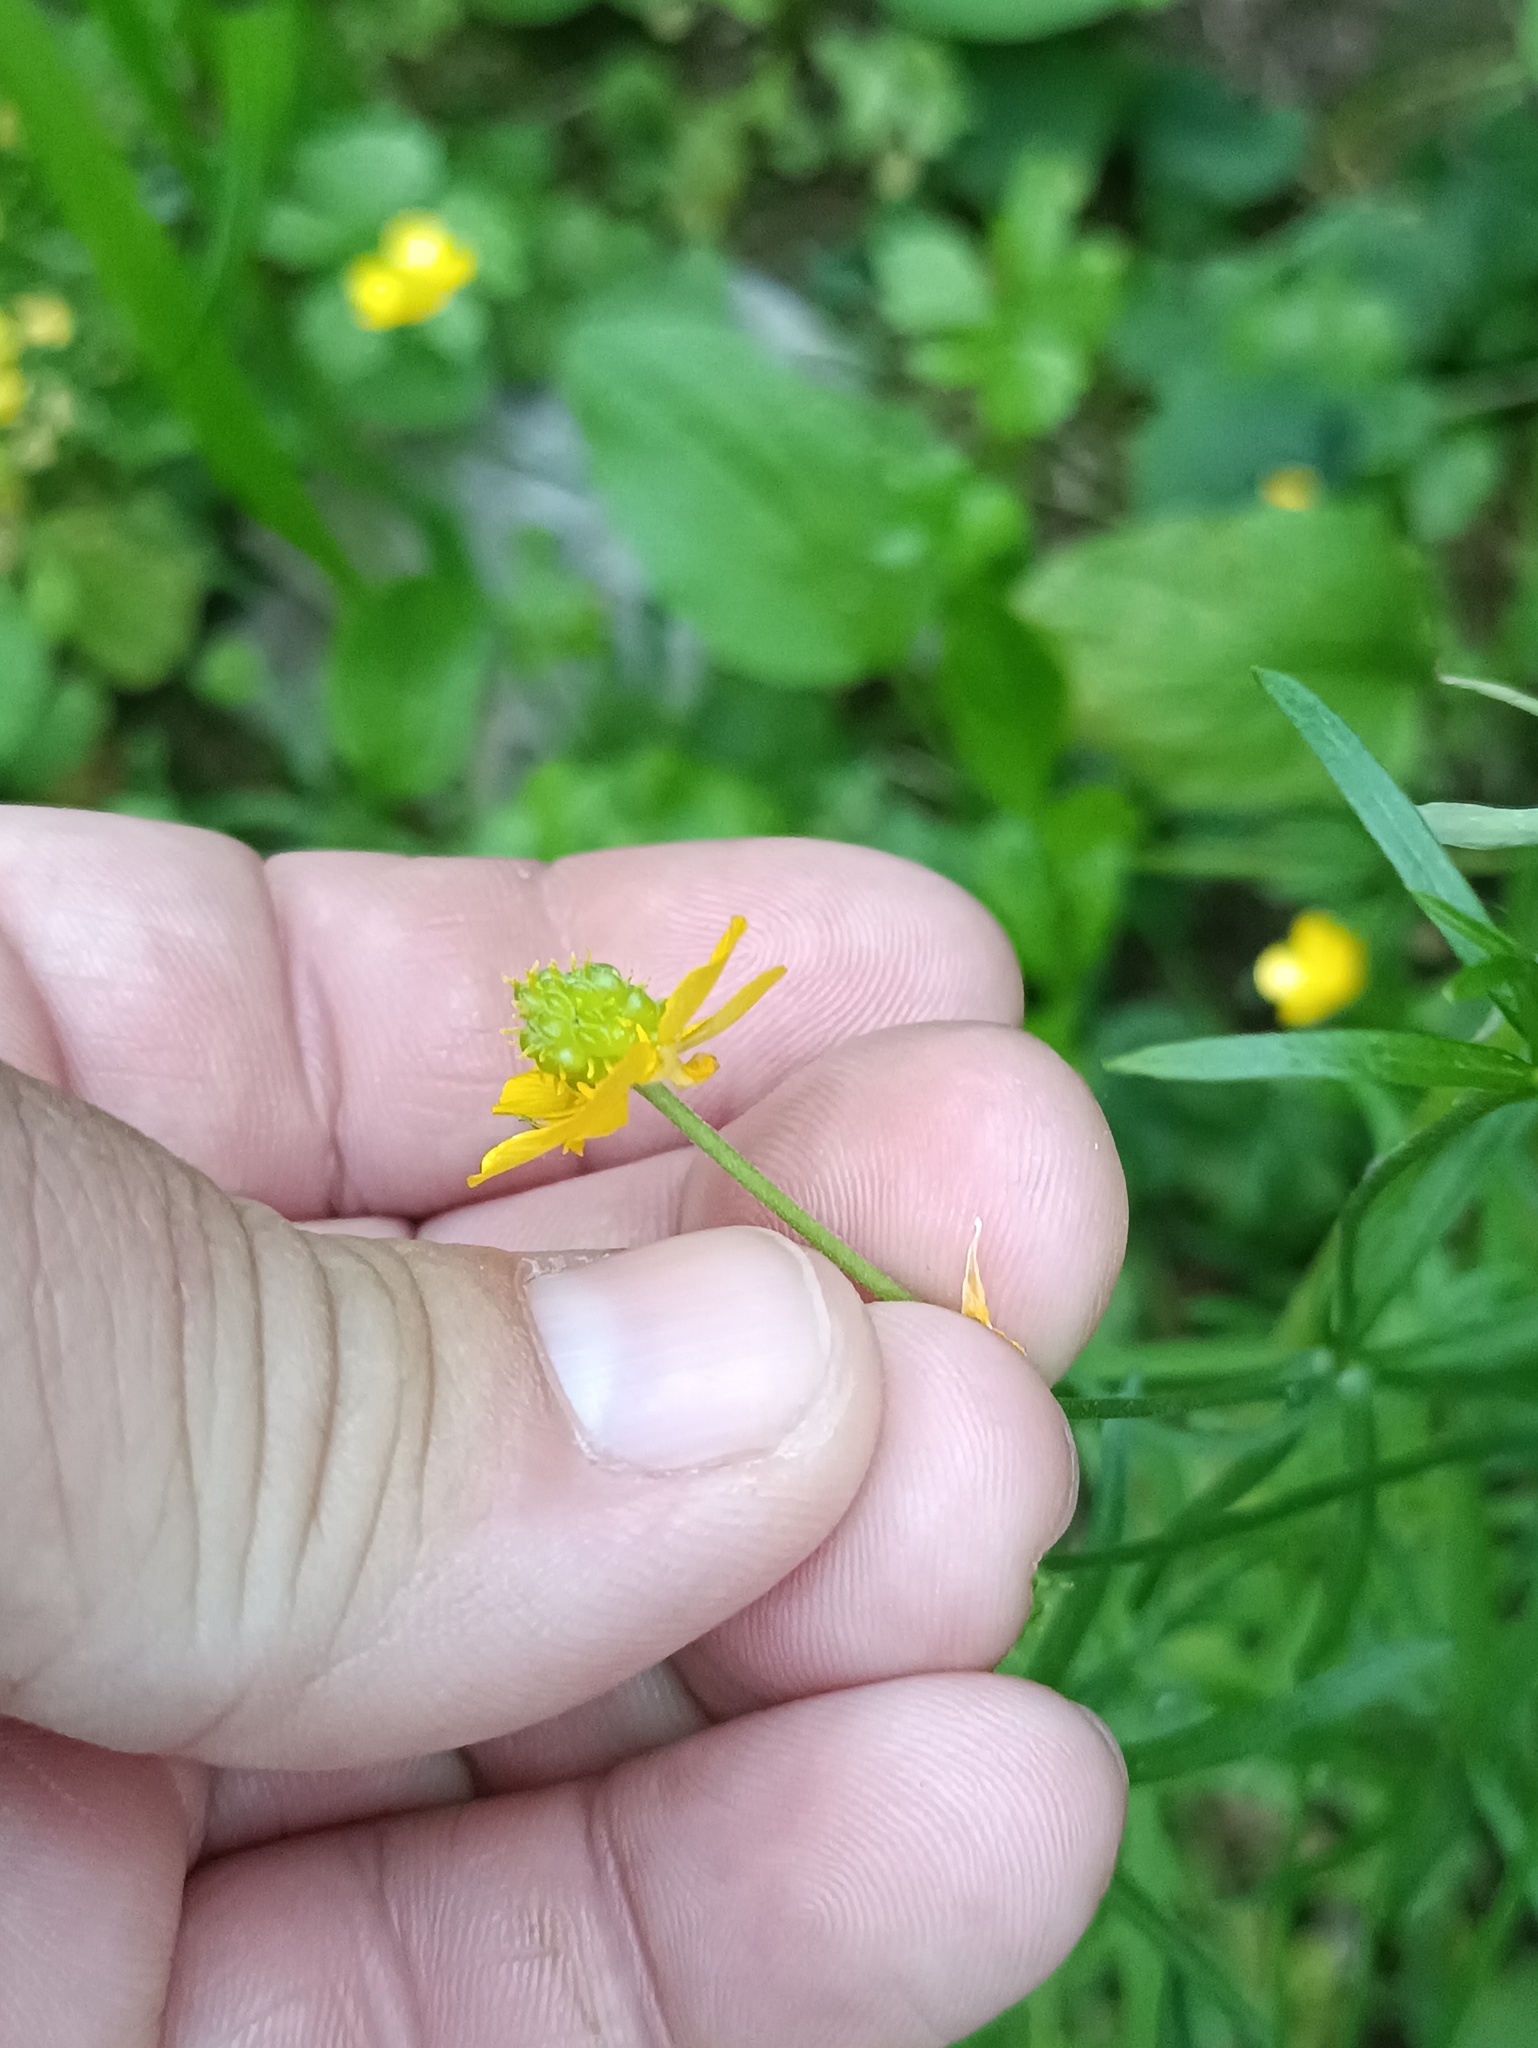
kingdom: Plantae
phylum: Tracheophyta
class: Magnoliopsida
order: Ranunculales
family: Ranunculaceae
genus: Ranunculus
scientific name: Ranunculus auricomus
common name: Goldilocks buttercup
